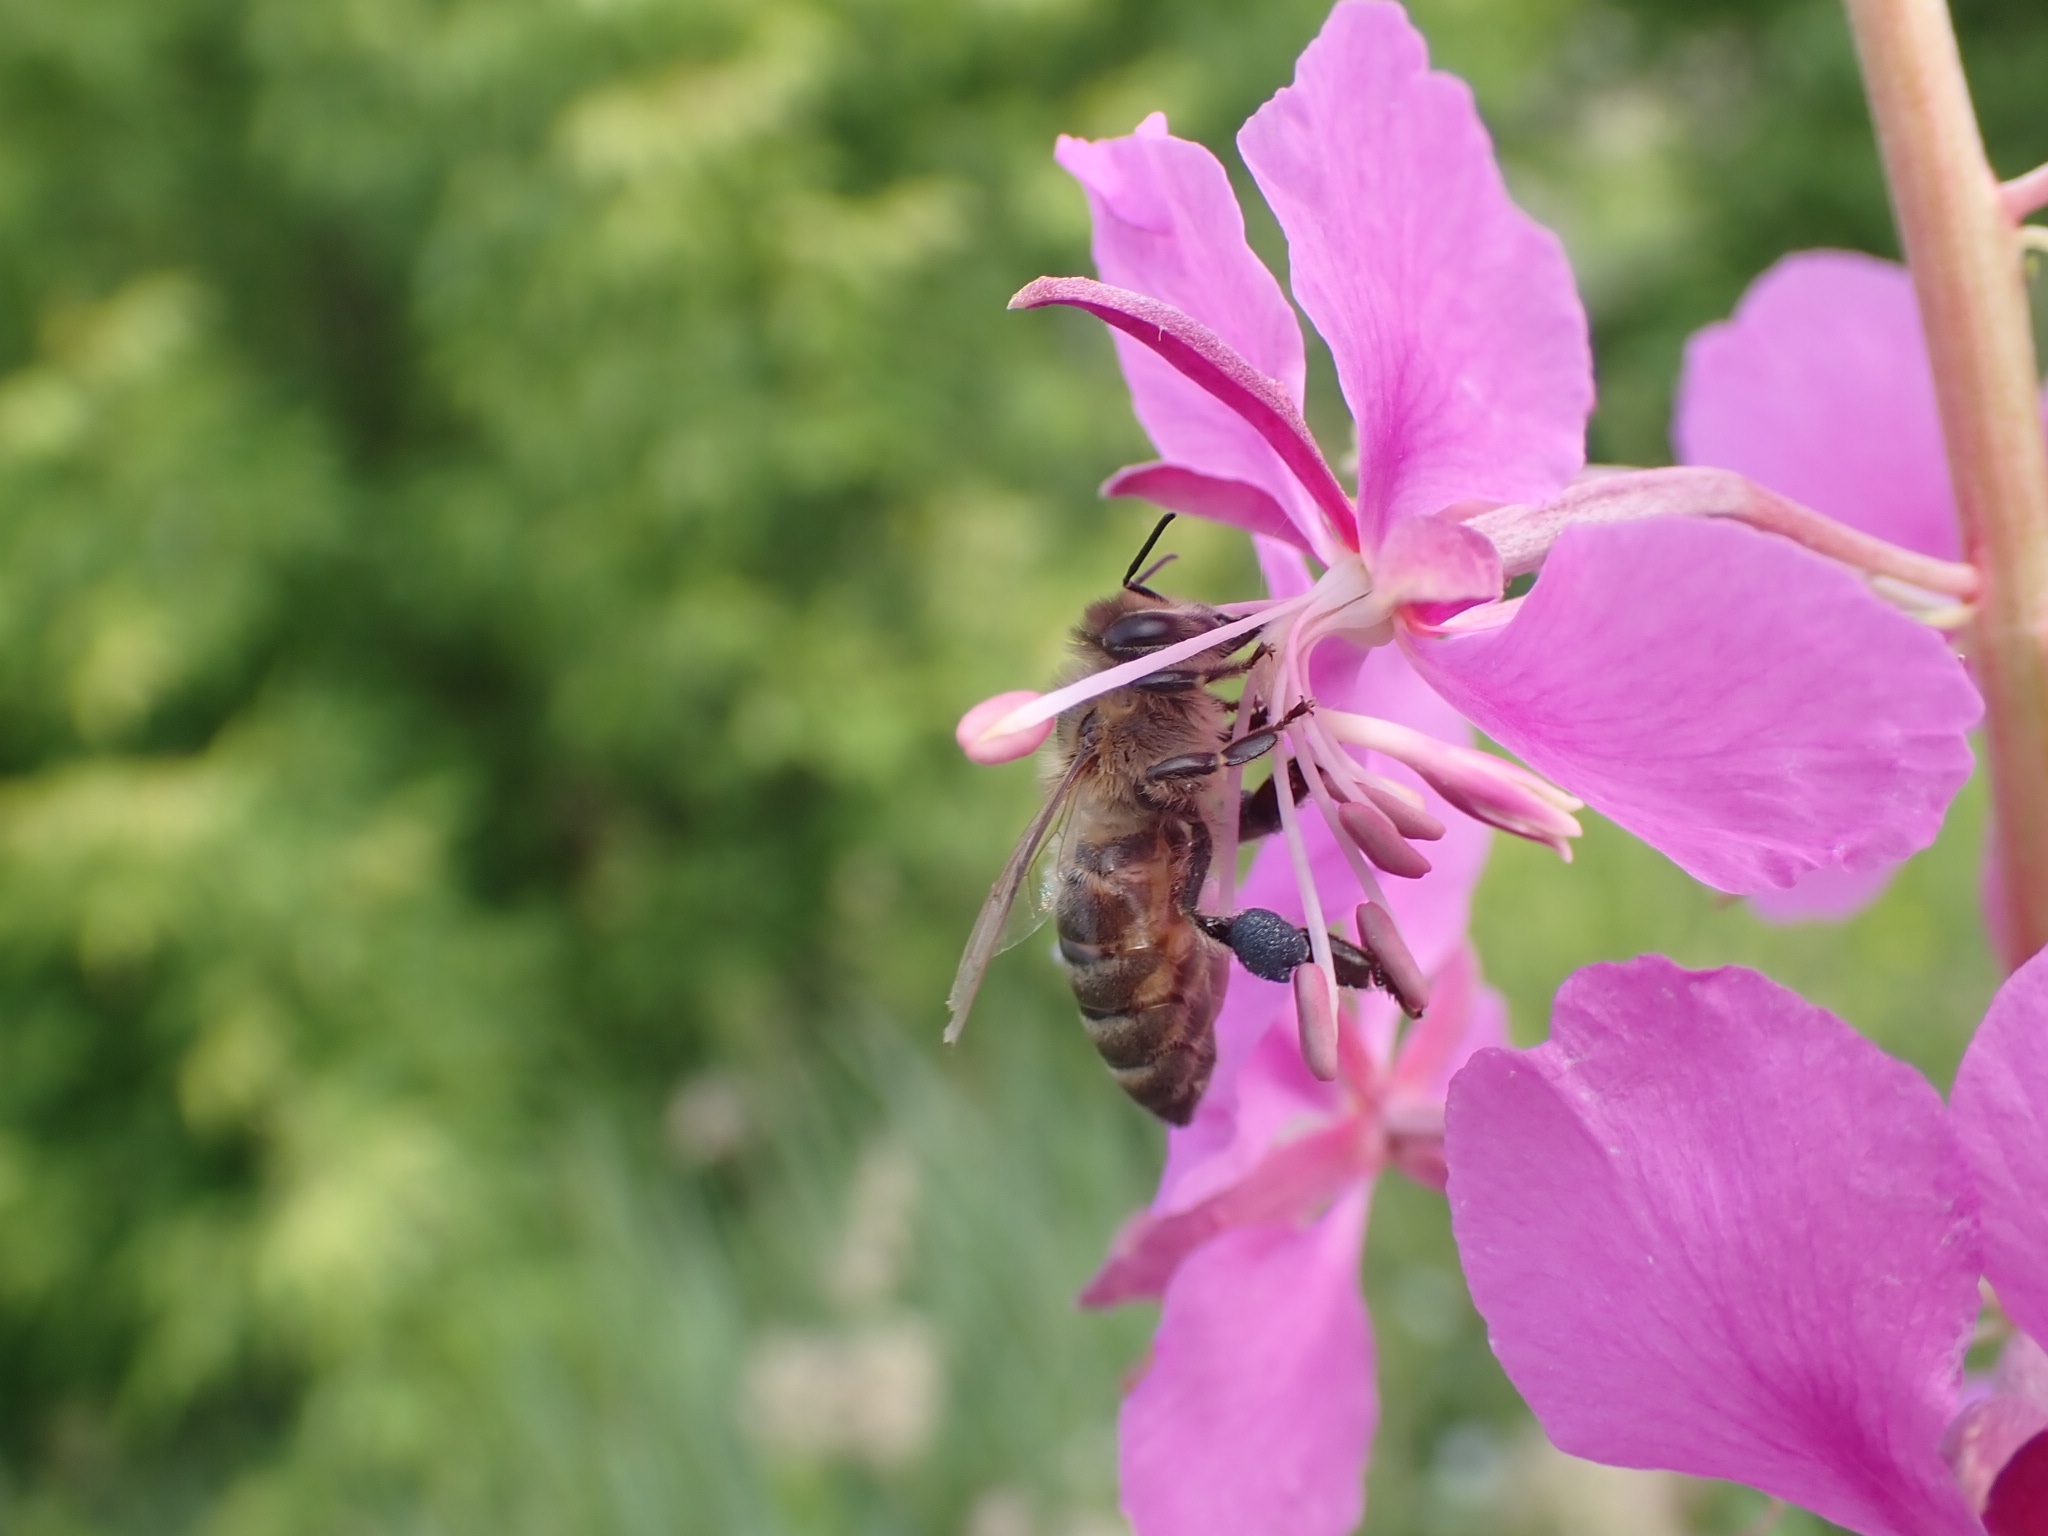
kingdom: Animalia
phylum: Arthropoda
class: Insecta
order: Hymenoptera
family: Apidae
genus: Apis
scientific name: Apis mellifera
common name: Honey bee
